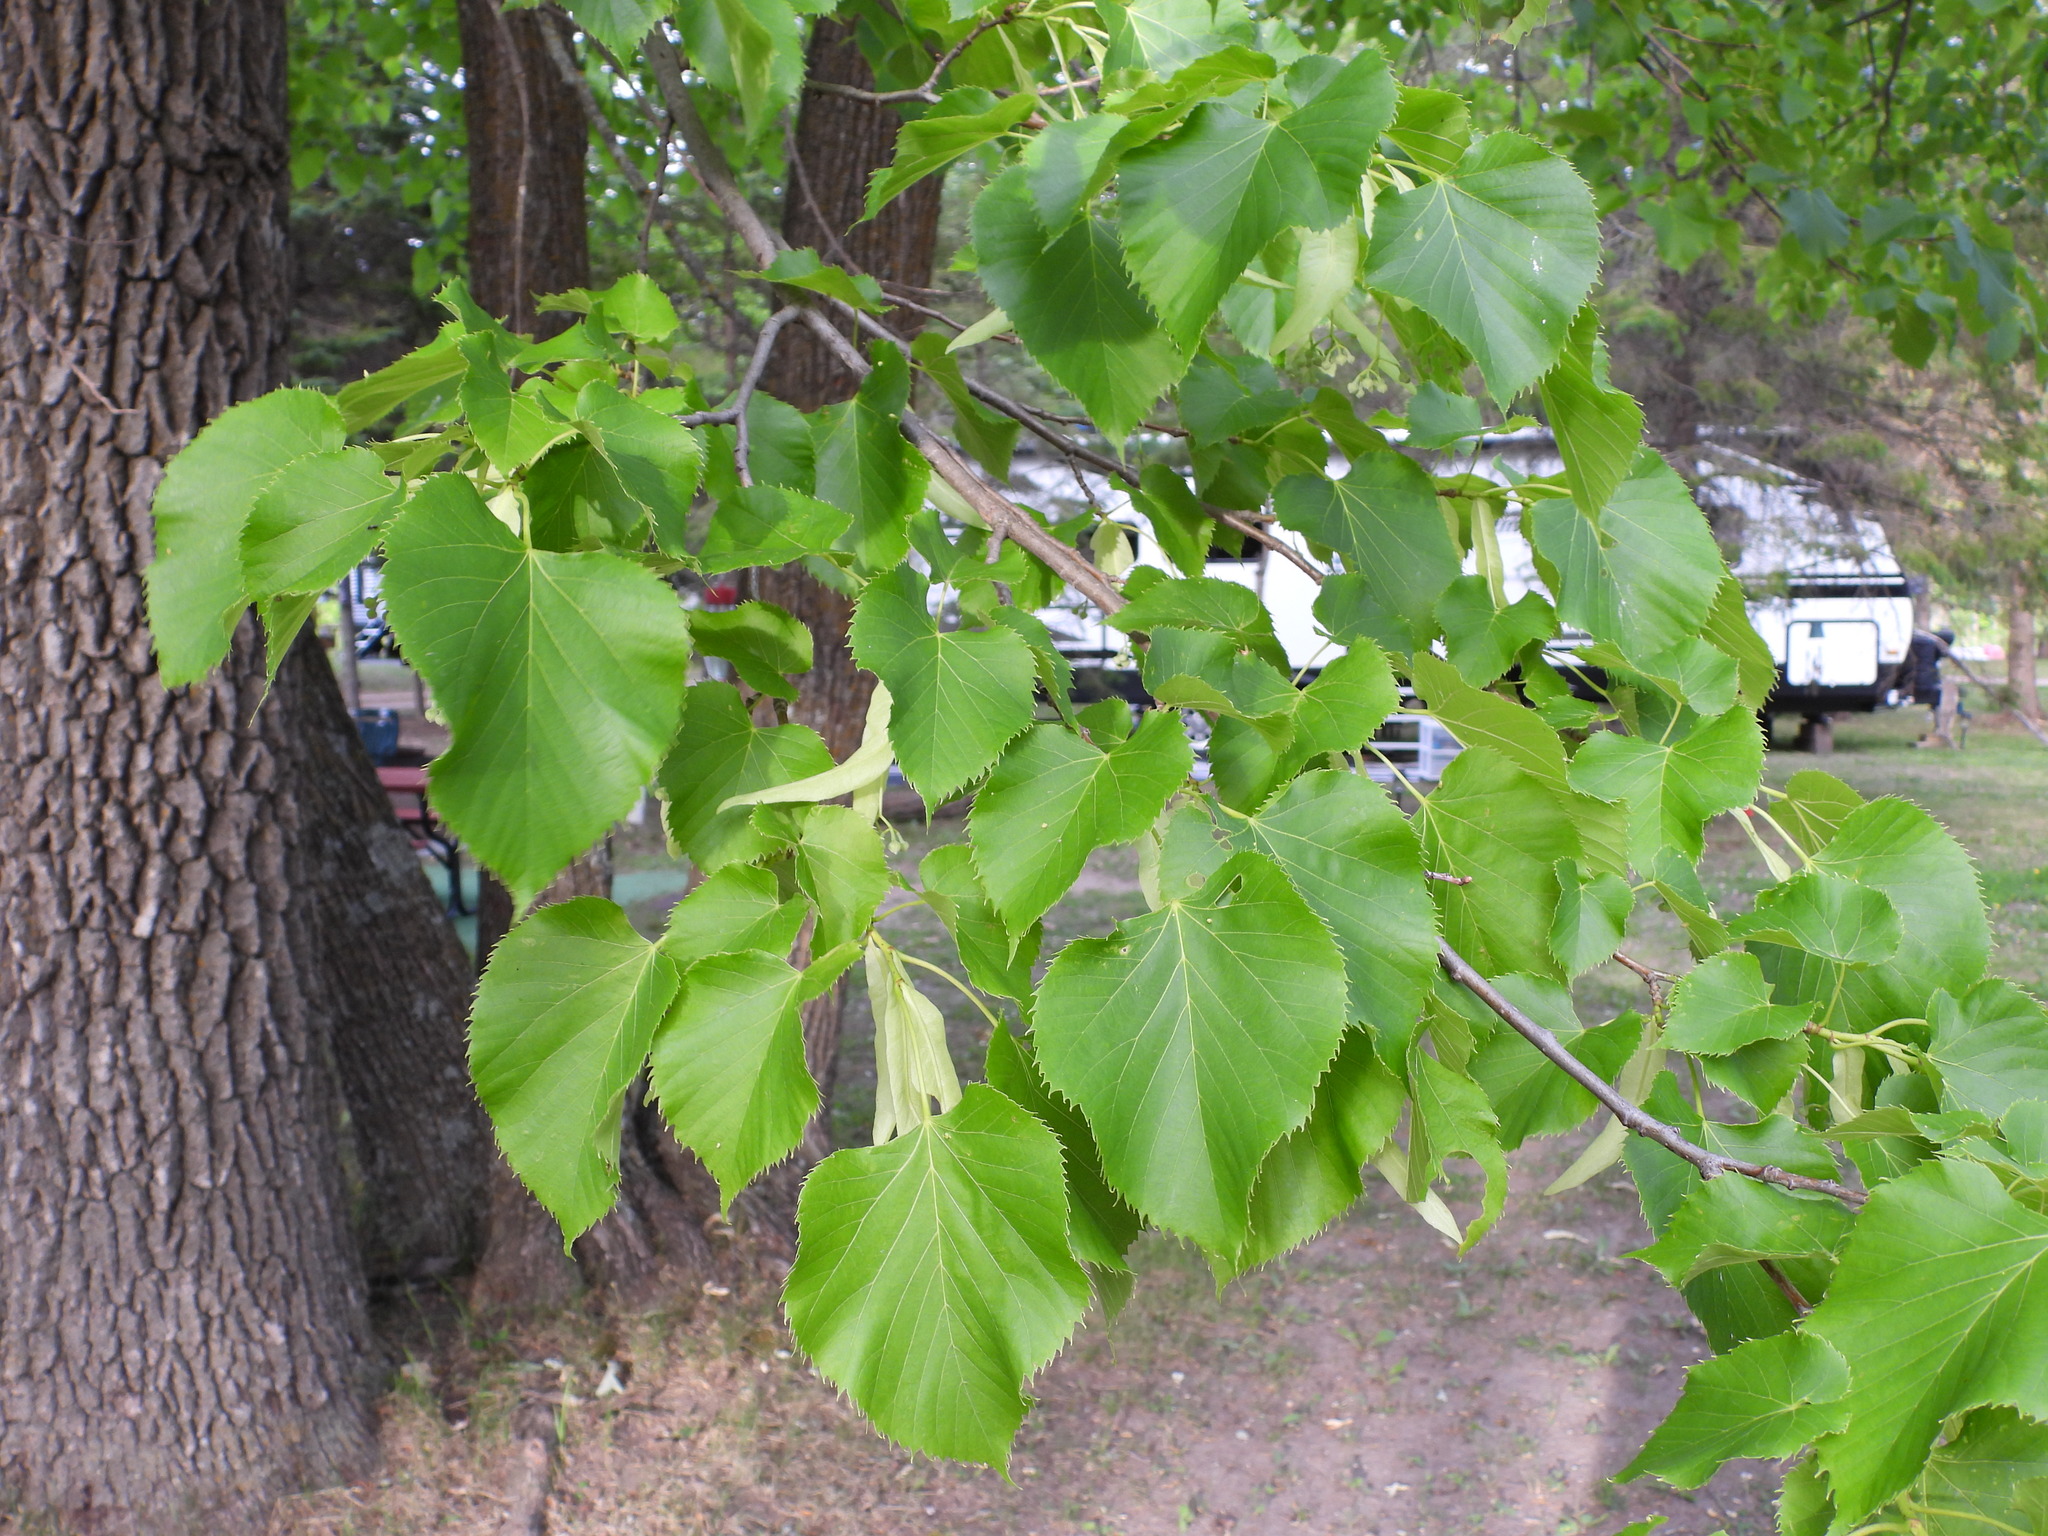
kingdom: Plantae
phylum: Tracheophyta
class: Magnoliopsida
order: Malvales
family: Malvaceae
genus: Tilia
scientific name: Tilia americana
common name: Basswood
